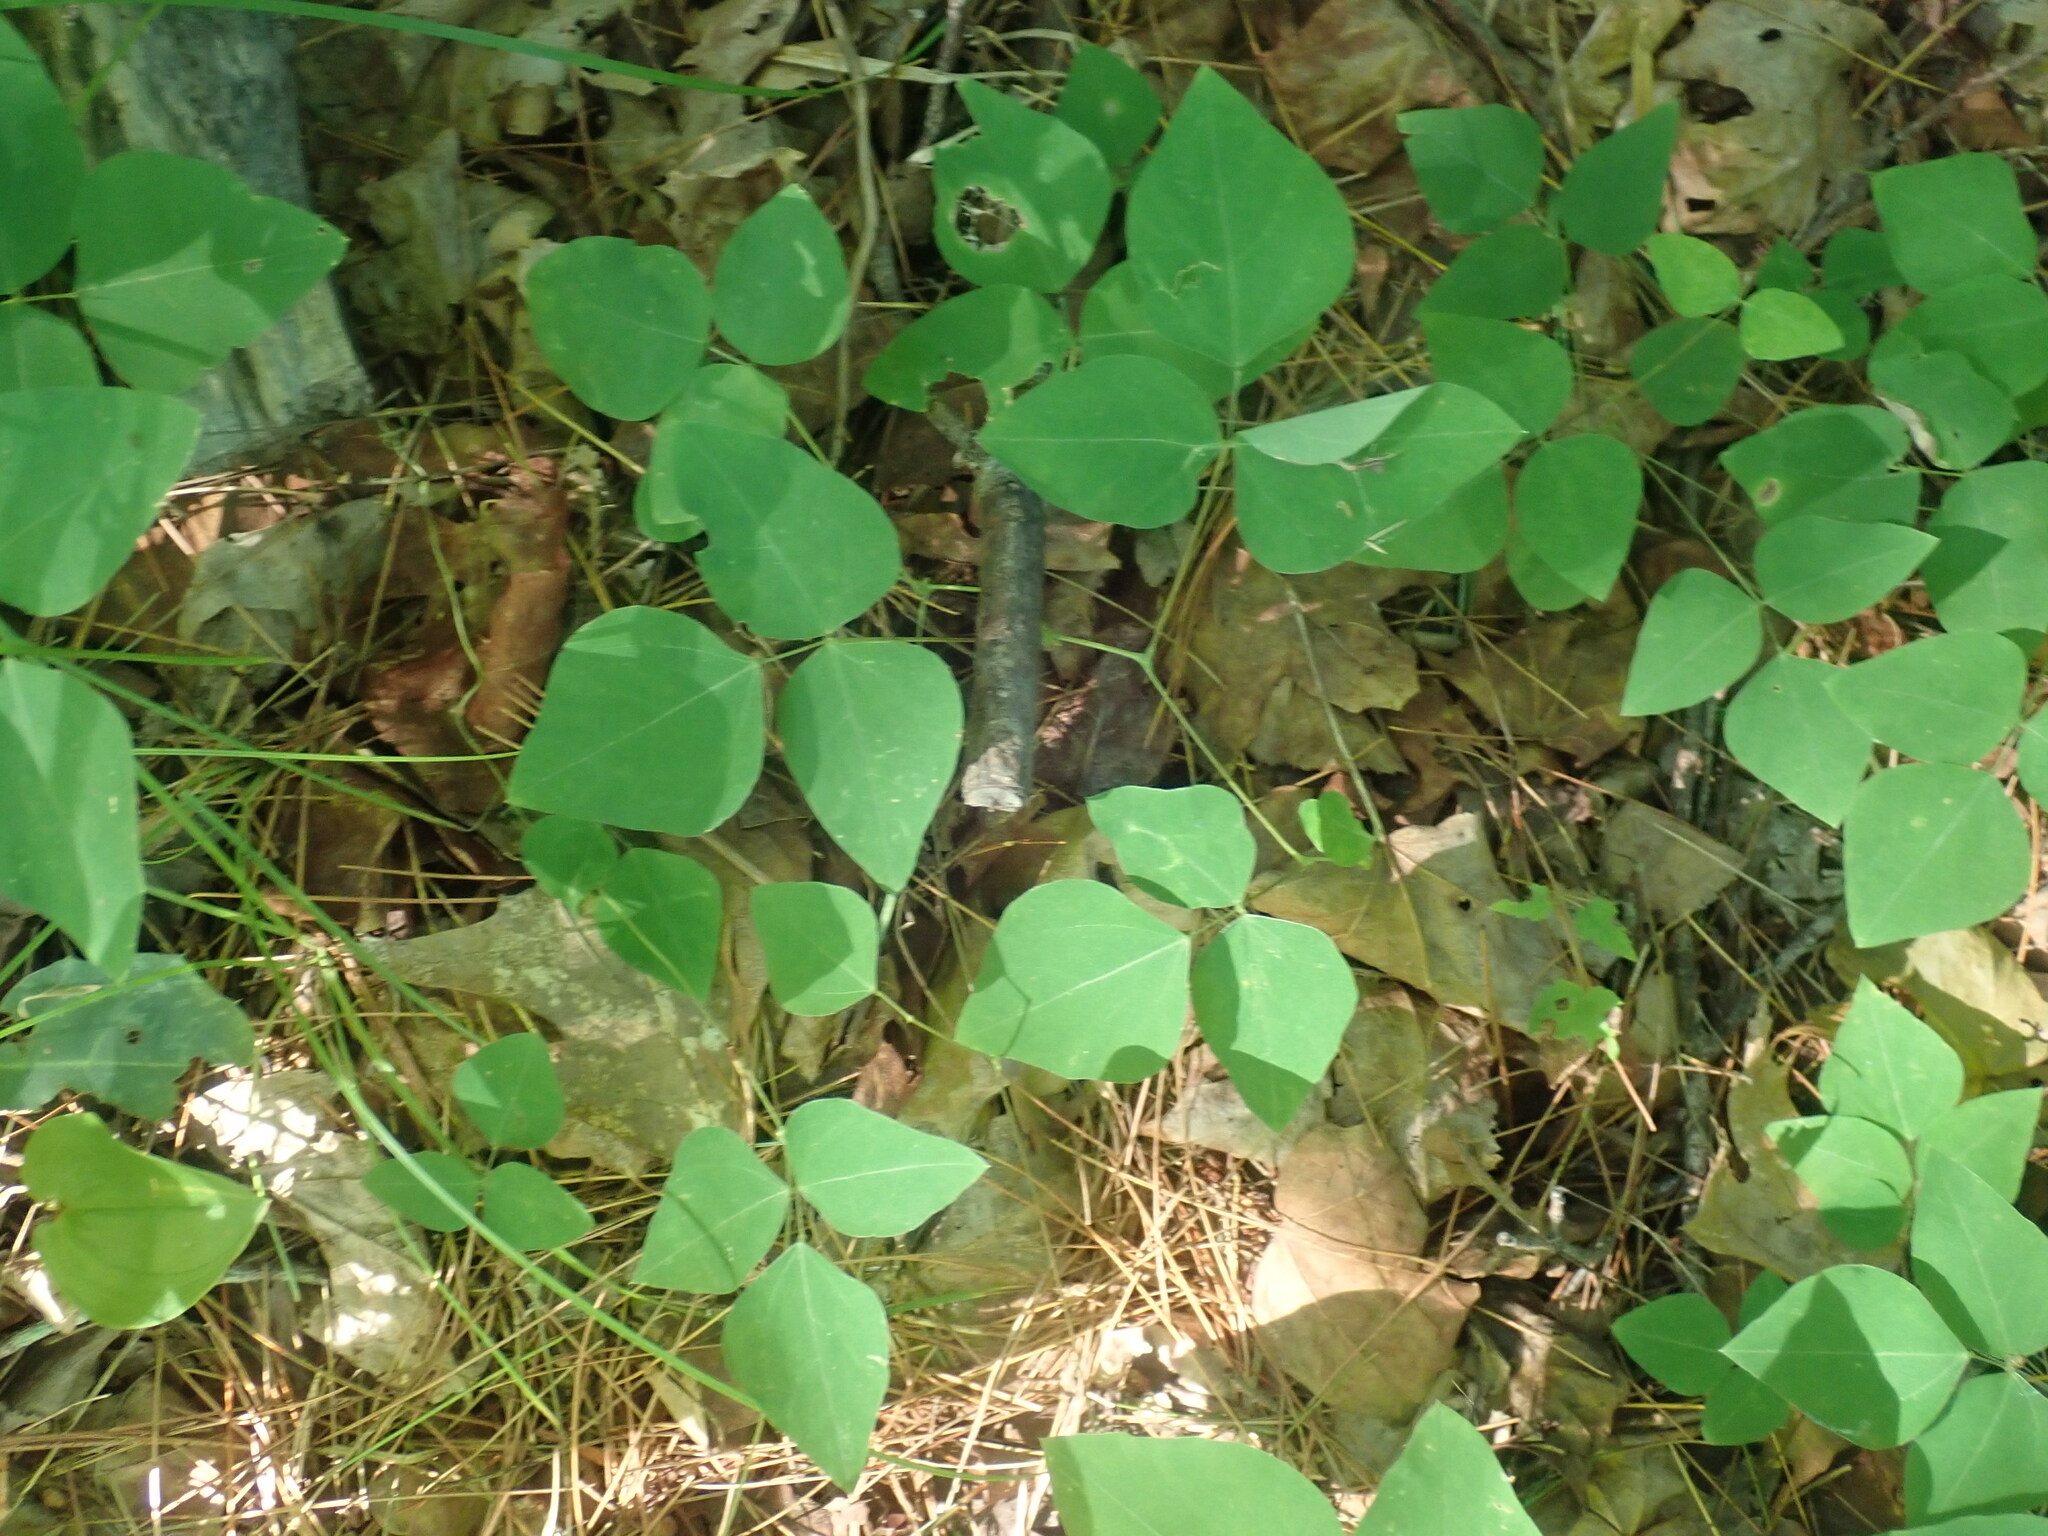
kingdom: Plantae
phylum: Tracheophyta
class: Magnoliopsida
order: Fabales
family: Fabaceae
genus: Amphicarpaea
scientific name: Amphicarpaea bracteata
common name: American hog peanut
